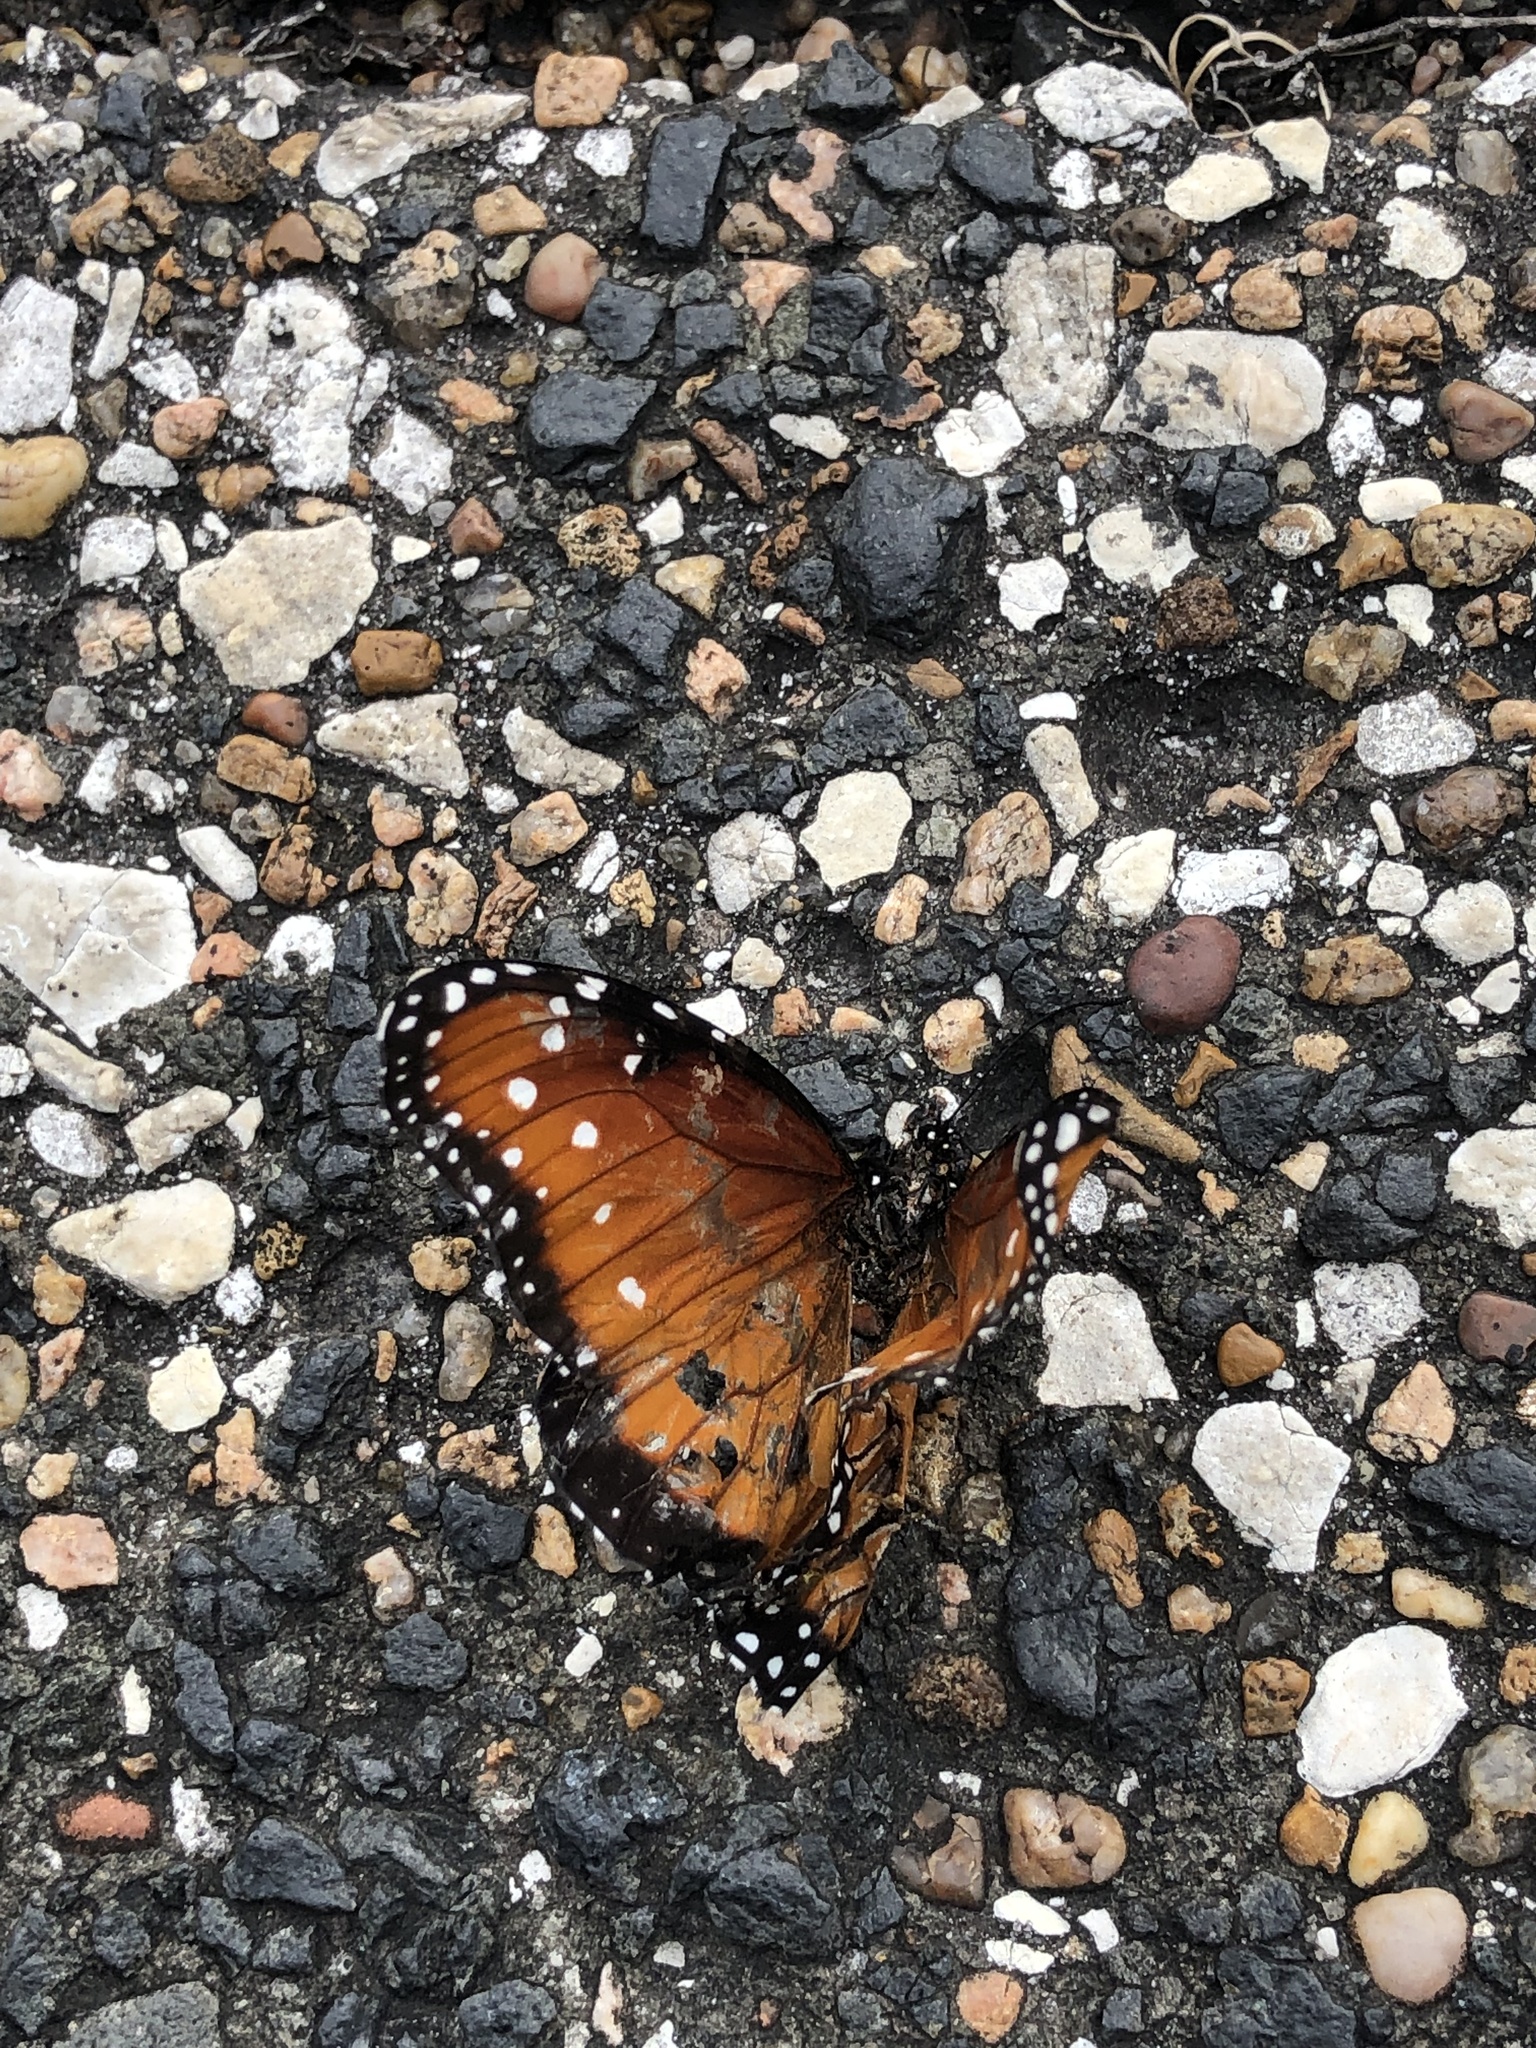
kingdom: Animalia
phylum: Arthropoda
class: Insecta
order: Lepidoptera
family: Nymphalidae
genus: Danaus
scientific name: Danaus gilippus
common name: Queen
